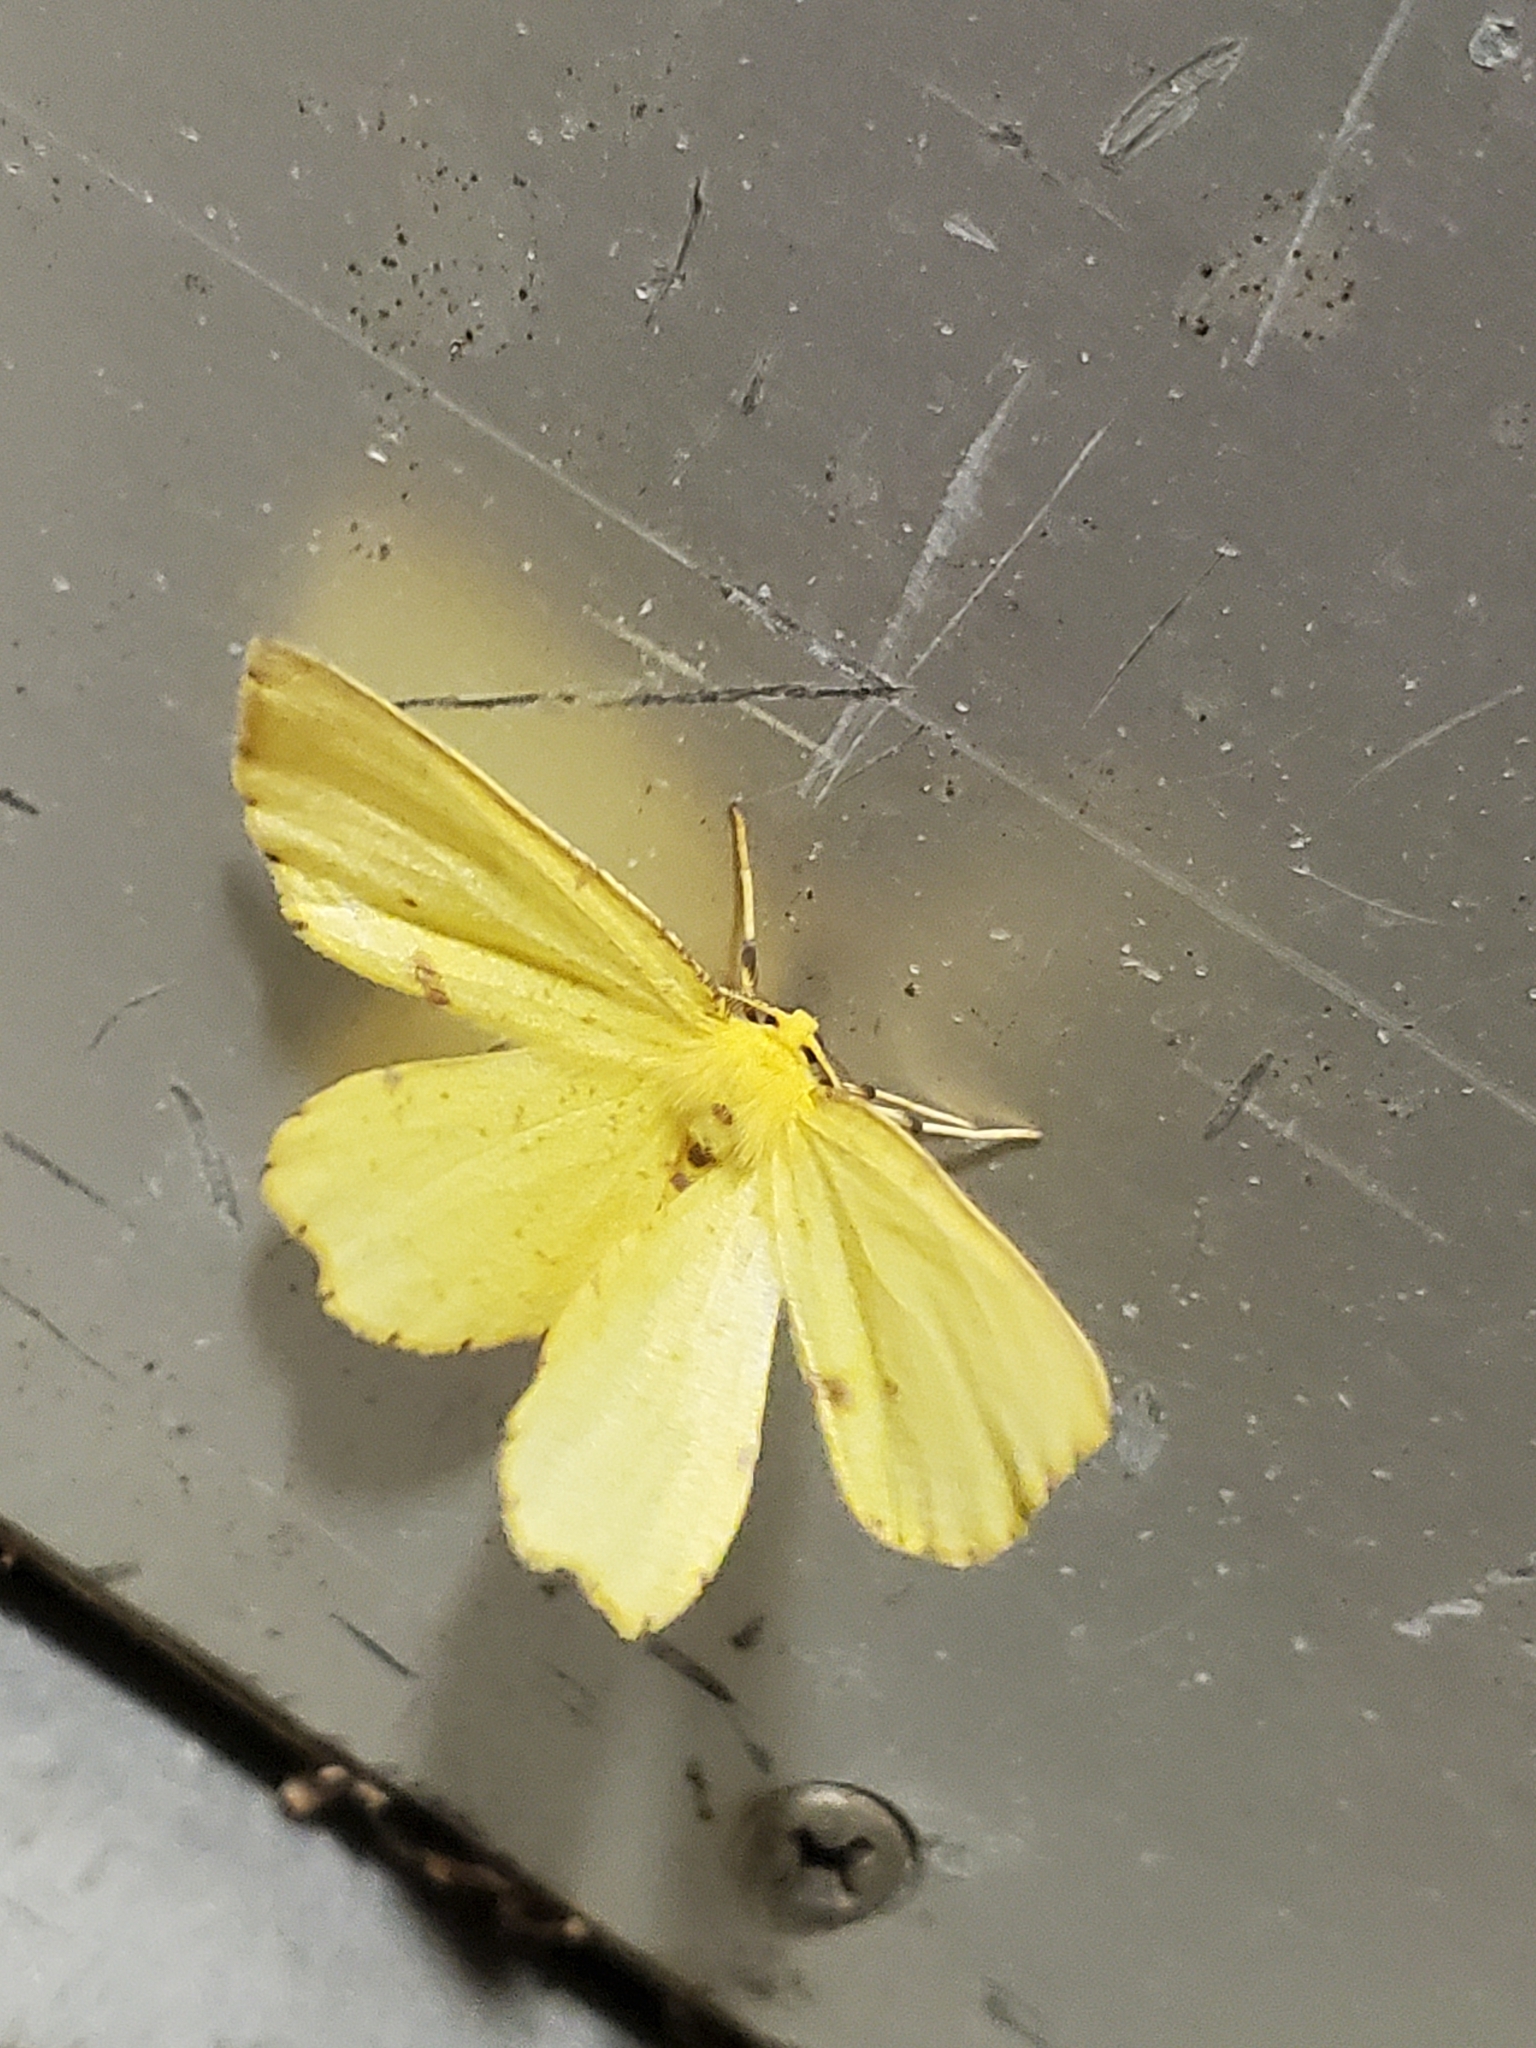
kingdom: Animalia
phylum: Arthropoda
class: Insecta
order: Lepidoptera
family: Geometridae
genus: Xanthotype
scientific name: Xanthotype
